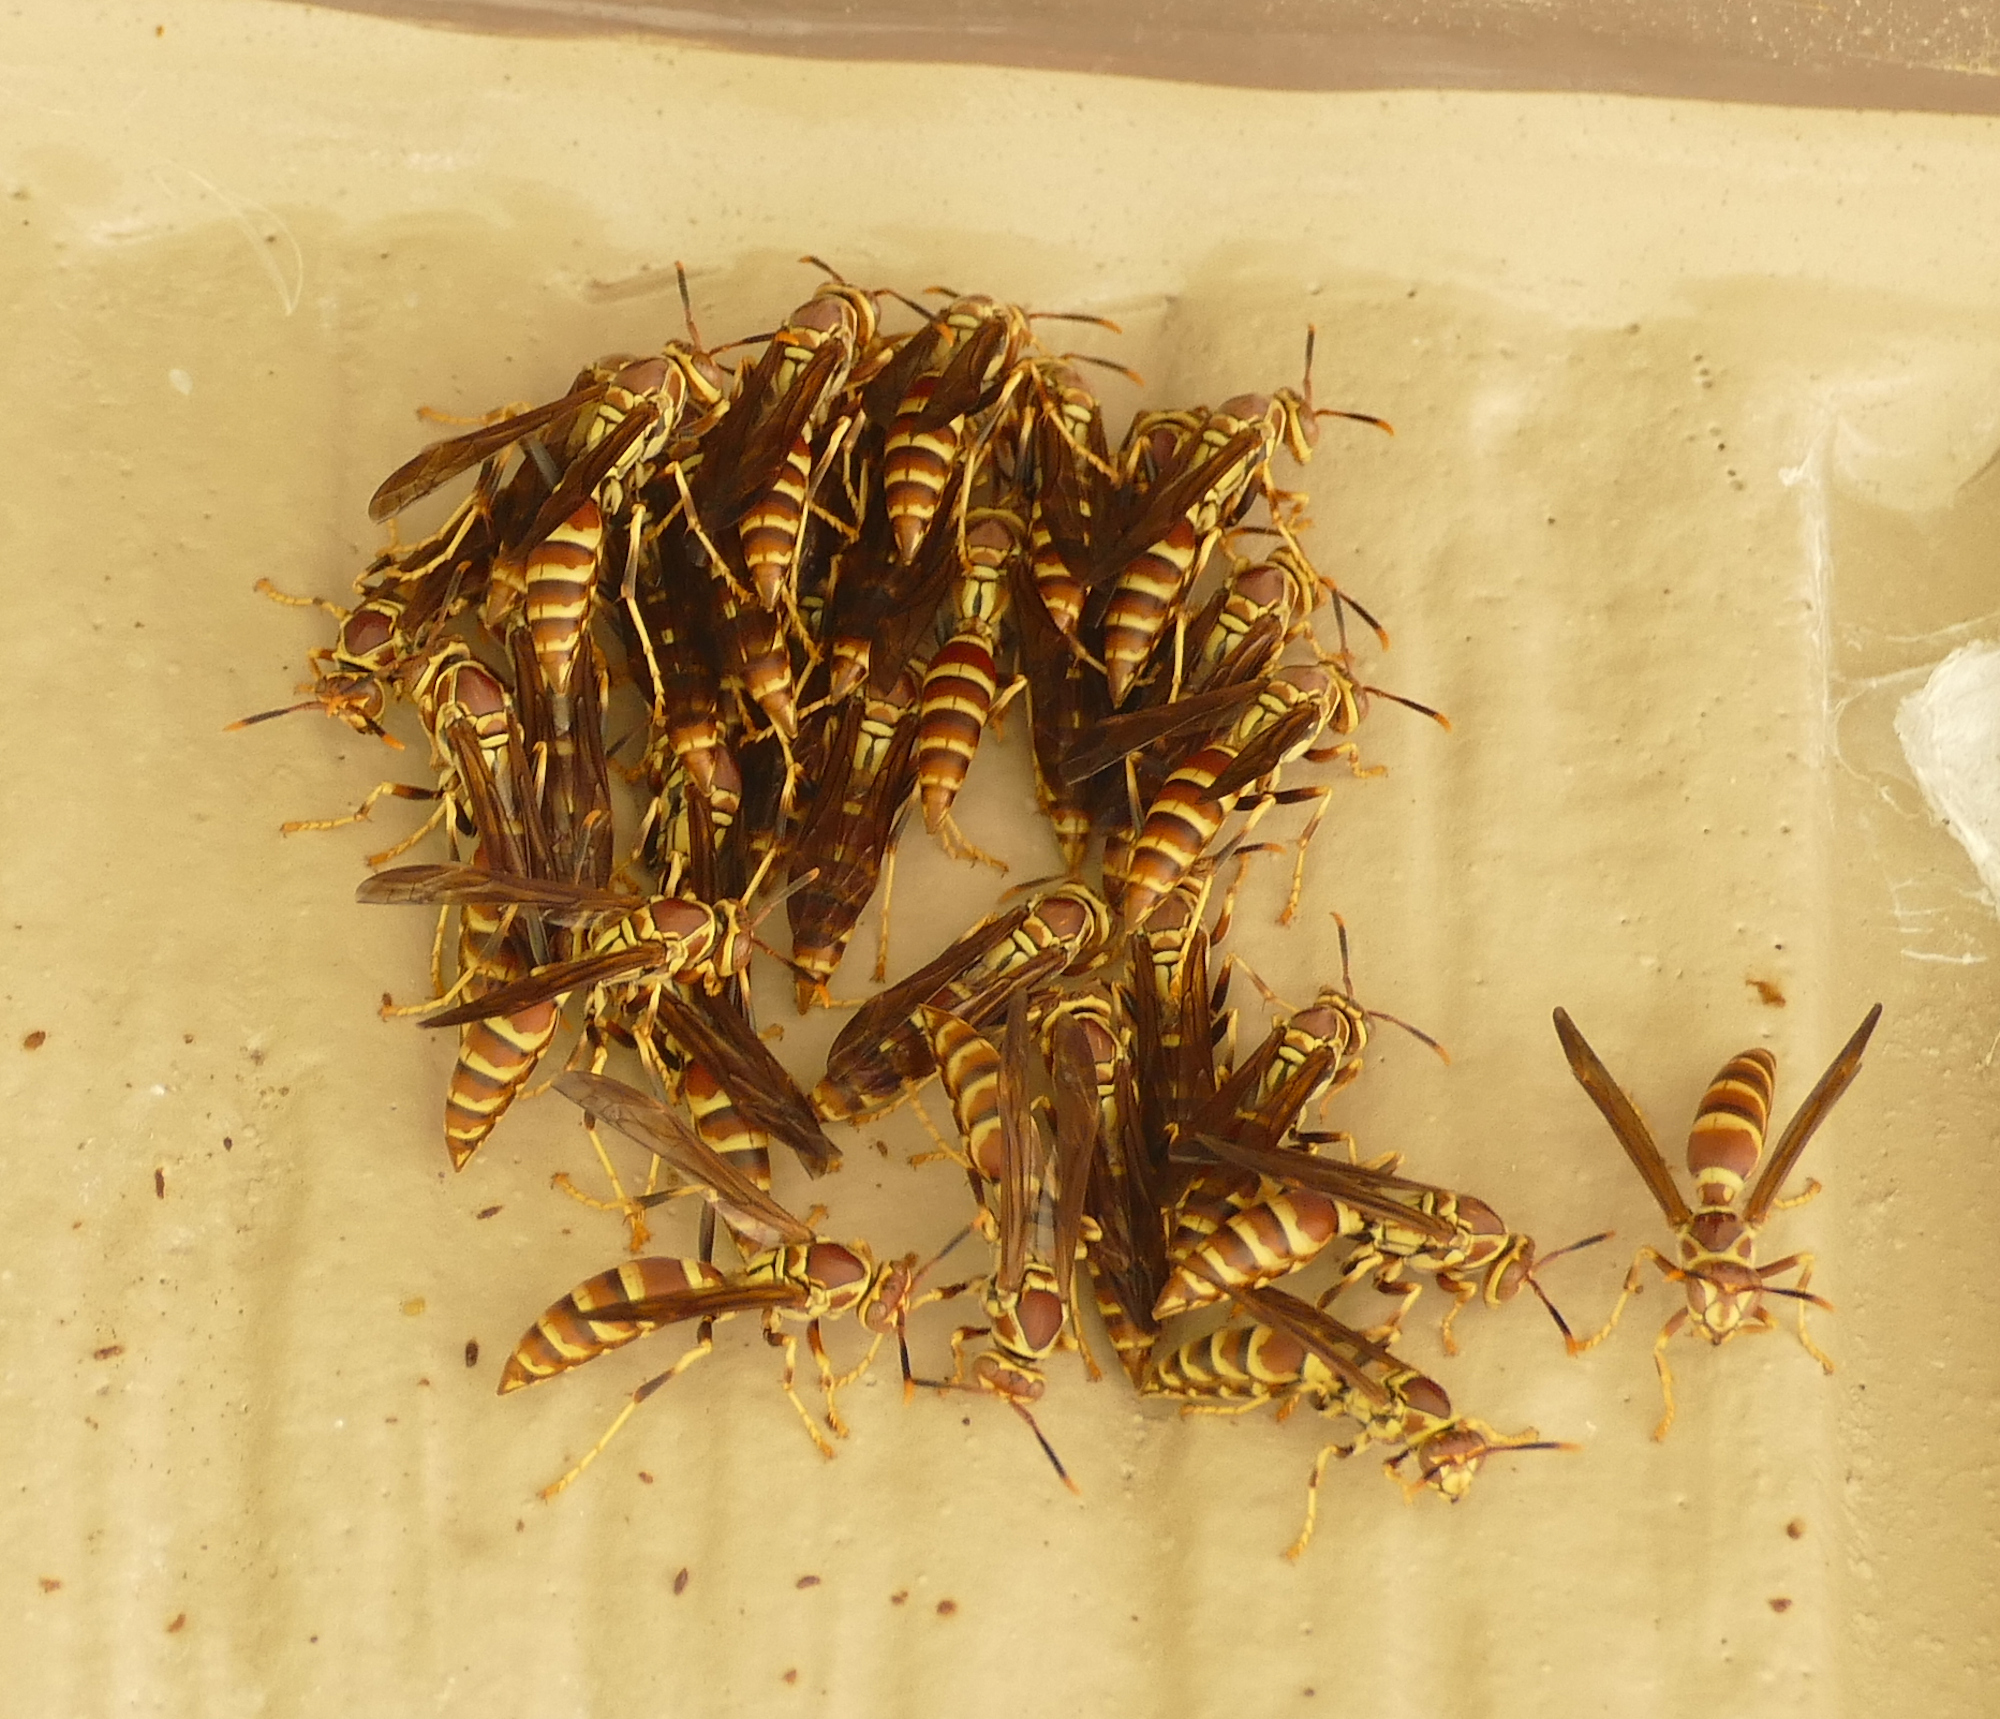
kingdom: Animalia
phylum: Arthropoda
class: Insecta
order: Hymenoptera
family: Eumenidae
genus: Polistes
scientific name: Polistes exclamans
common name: Paper wasp
